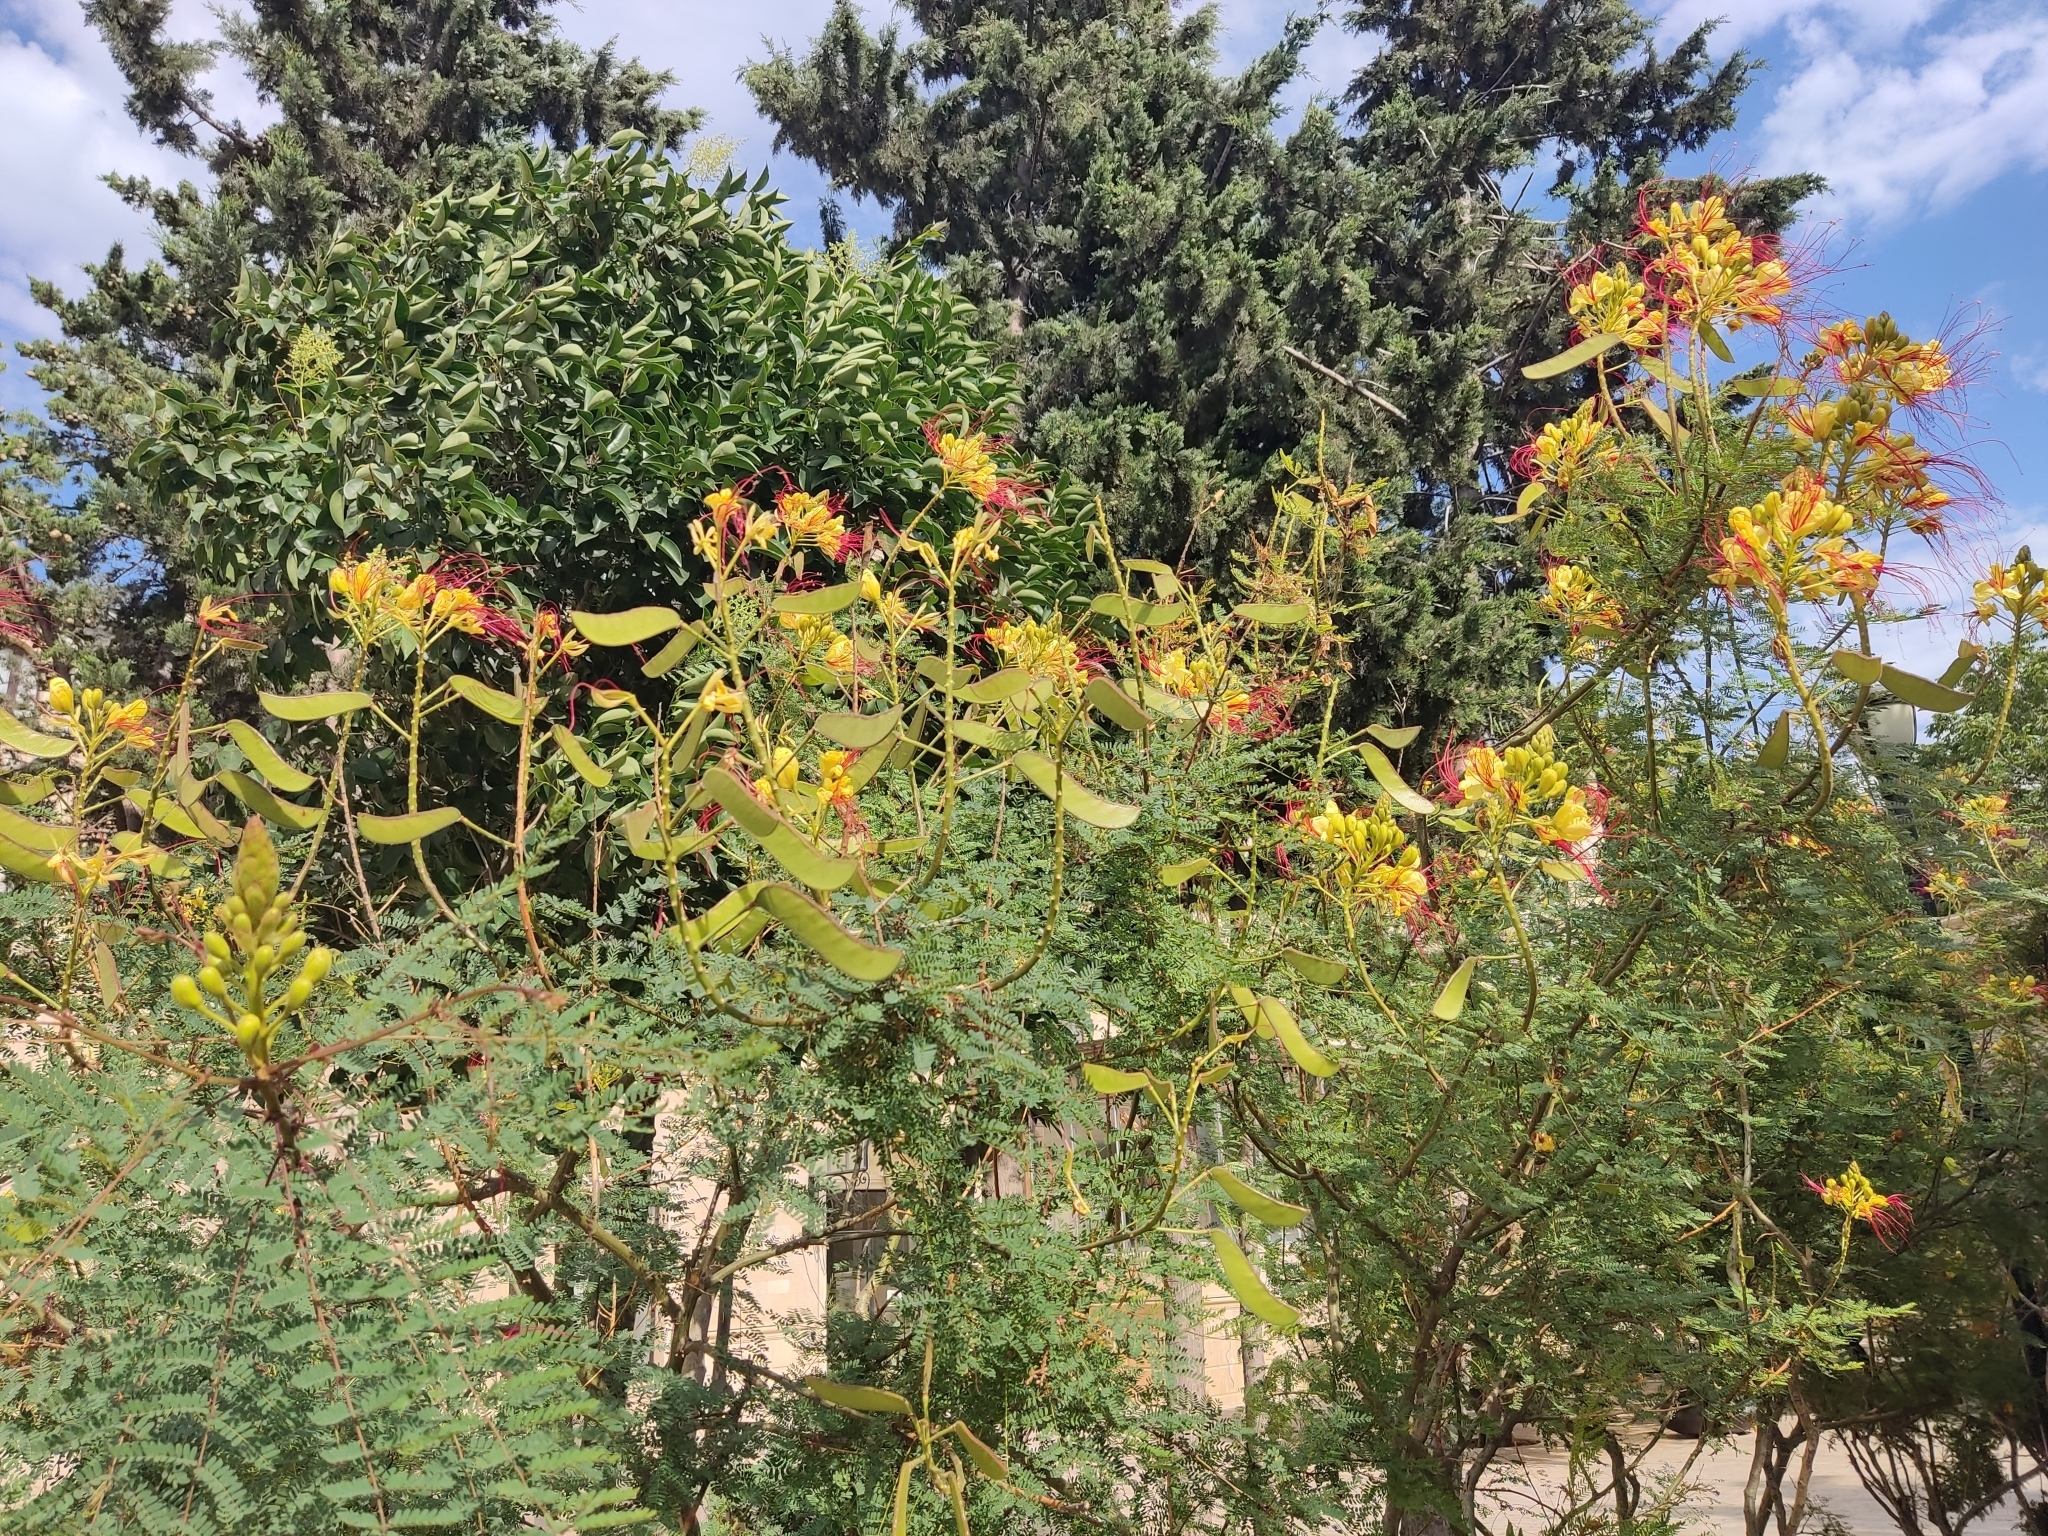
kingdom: Plantae
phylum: Tracheophyta
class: Magnoliopsida
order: Fabales
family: Fabaceae
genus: Erythrostemon
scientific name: Erythrostemon gilliesii
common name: Bird-of-paradise shrub
